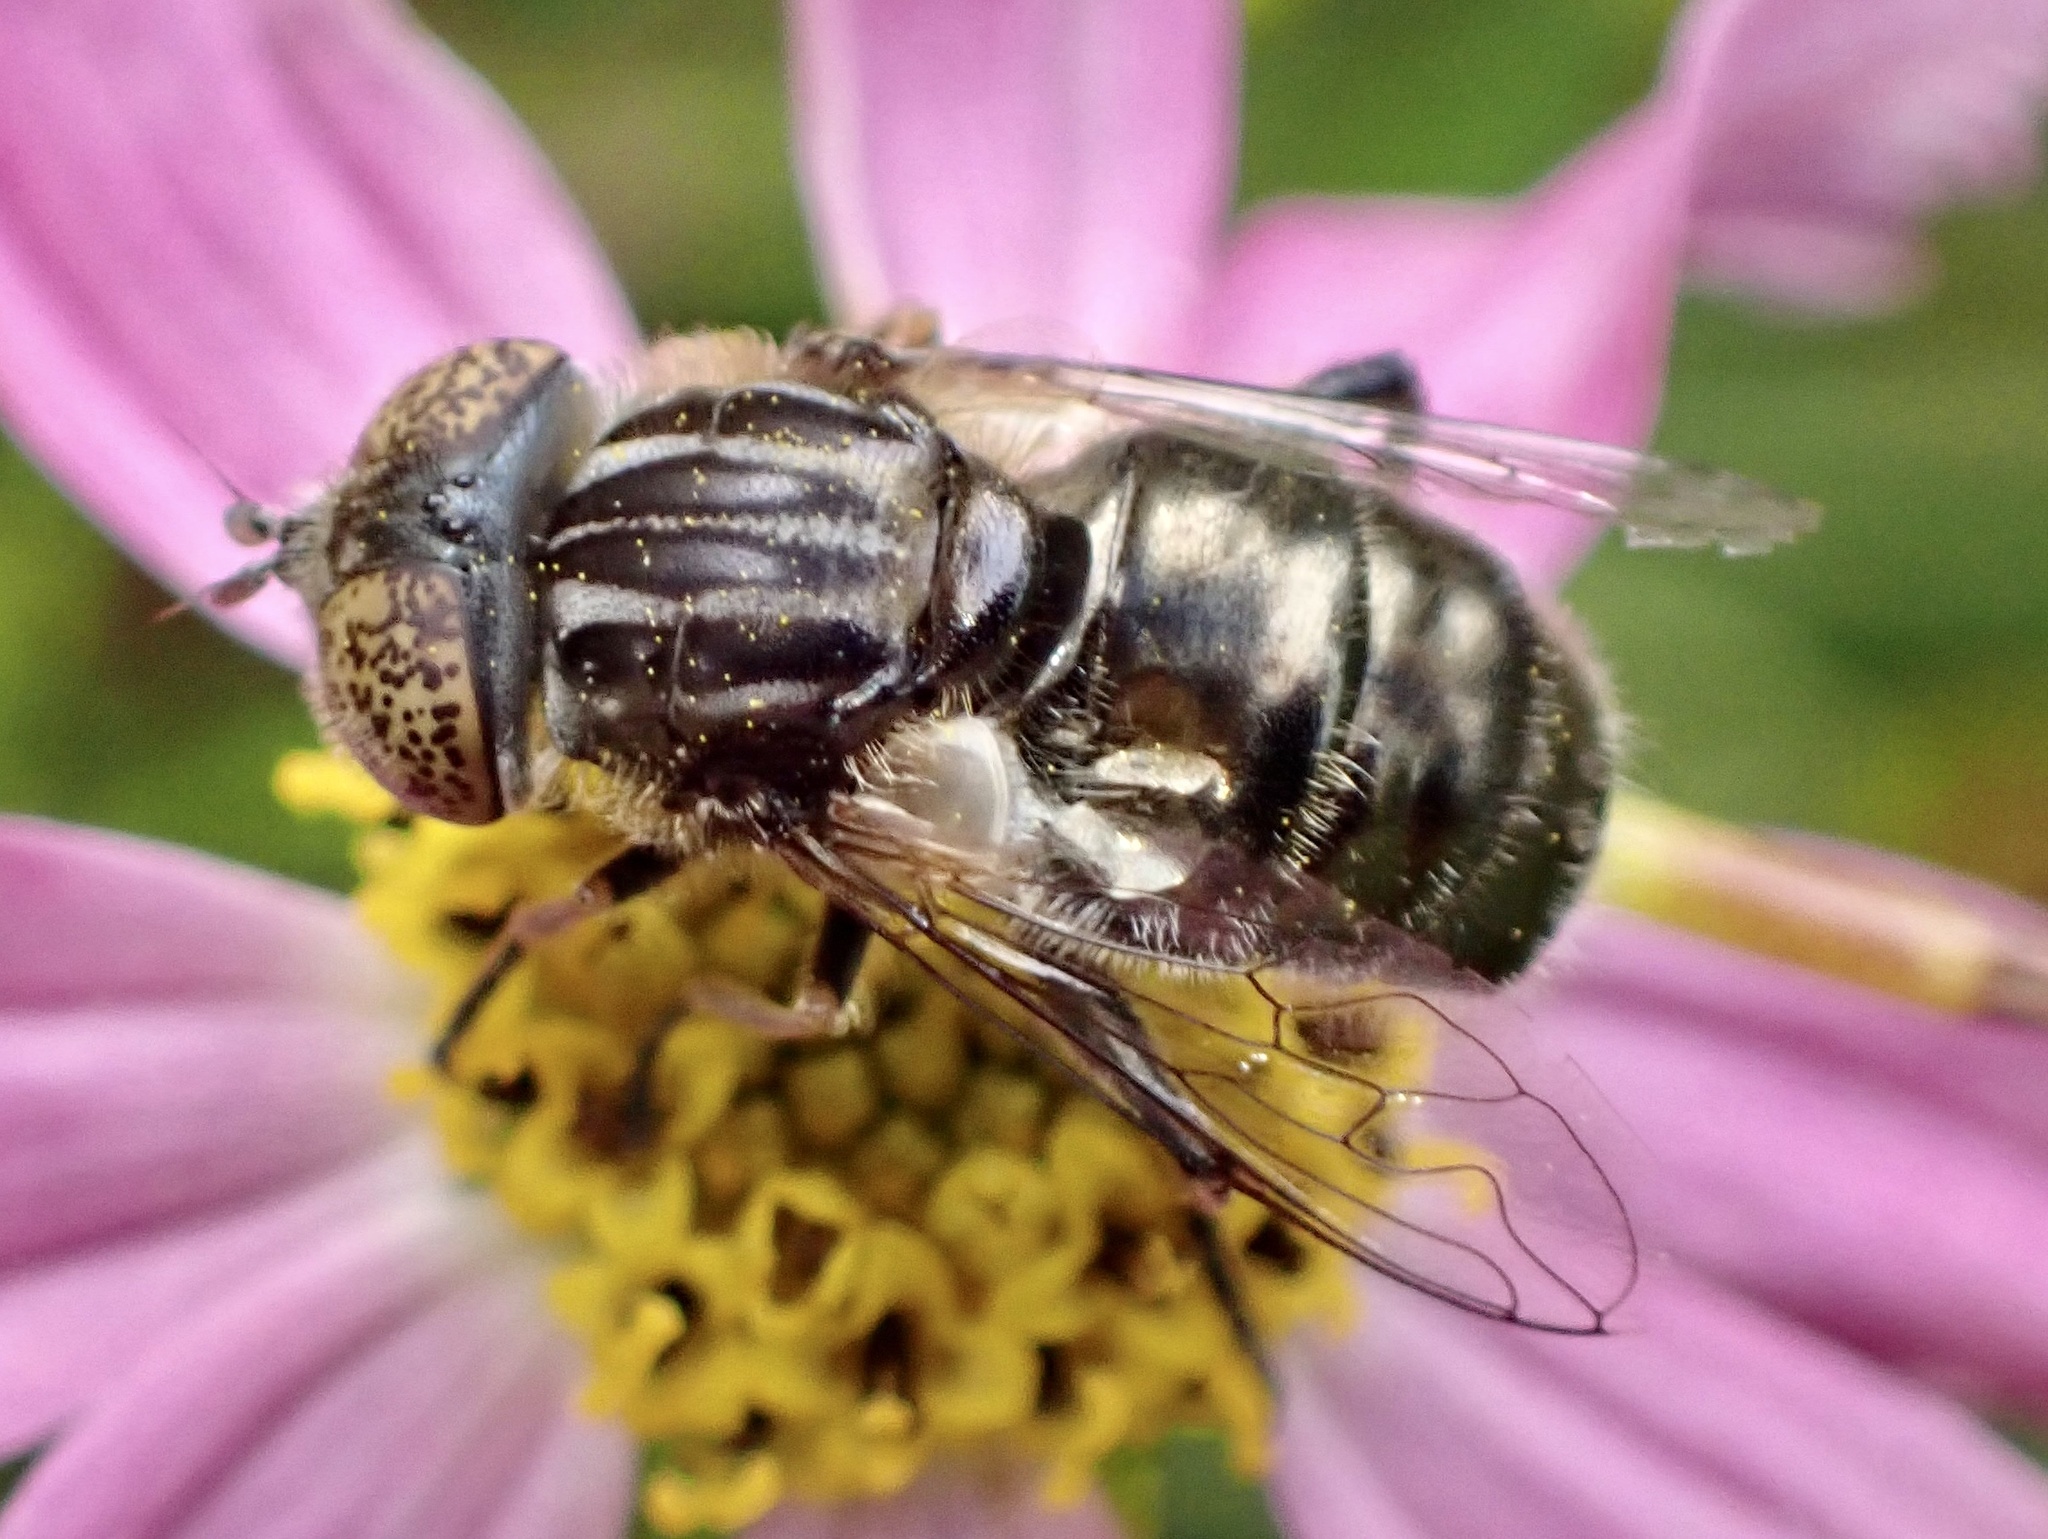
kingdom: Animalia
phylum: Arthropoda
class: Insecta
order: Diptera
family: Syrphidae
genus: Eristalinus
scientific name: Eristalinus sepulchralis
